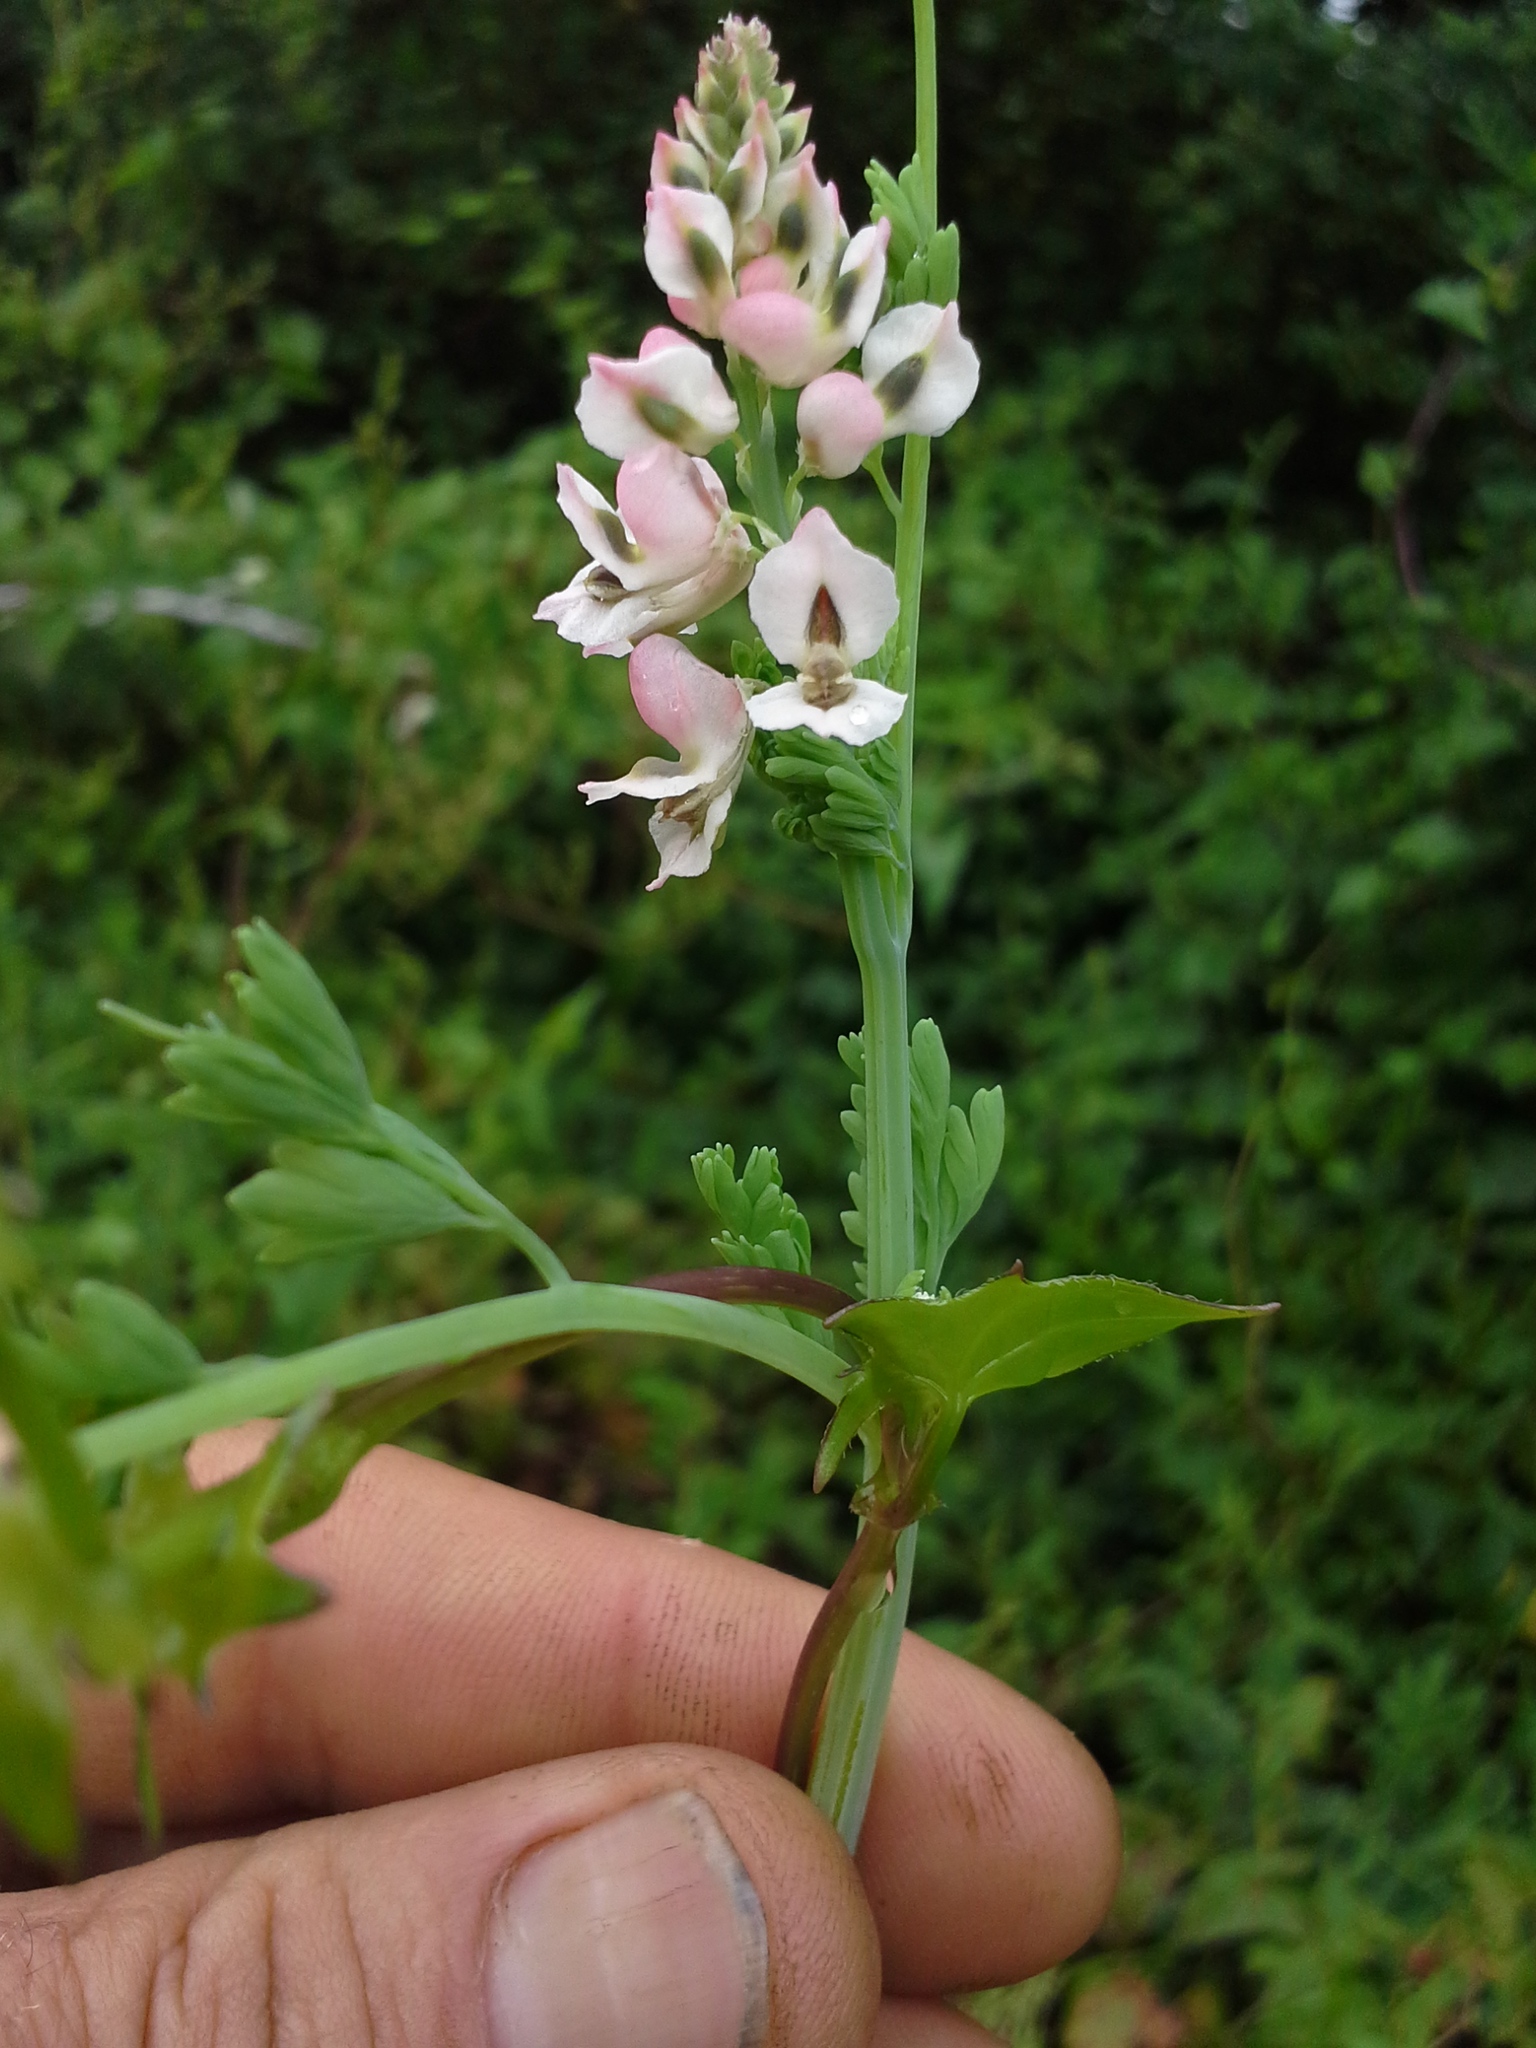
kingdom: Plantae
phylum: Tracheophyta
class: Magnoliopsida
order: Ranunculales
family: Papaveraceae
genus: Cysticapnos
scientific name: Cysticapnos pruinosa
